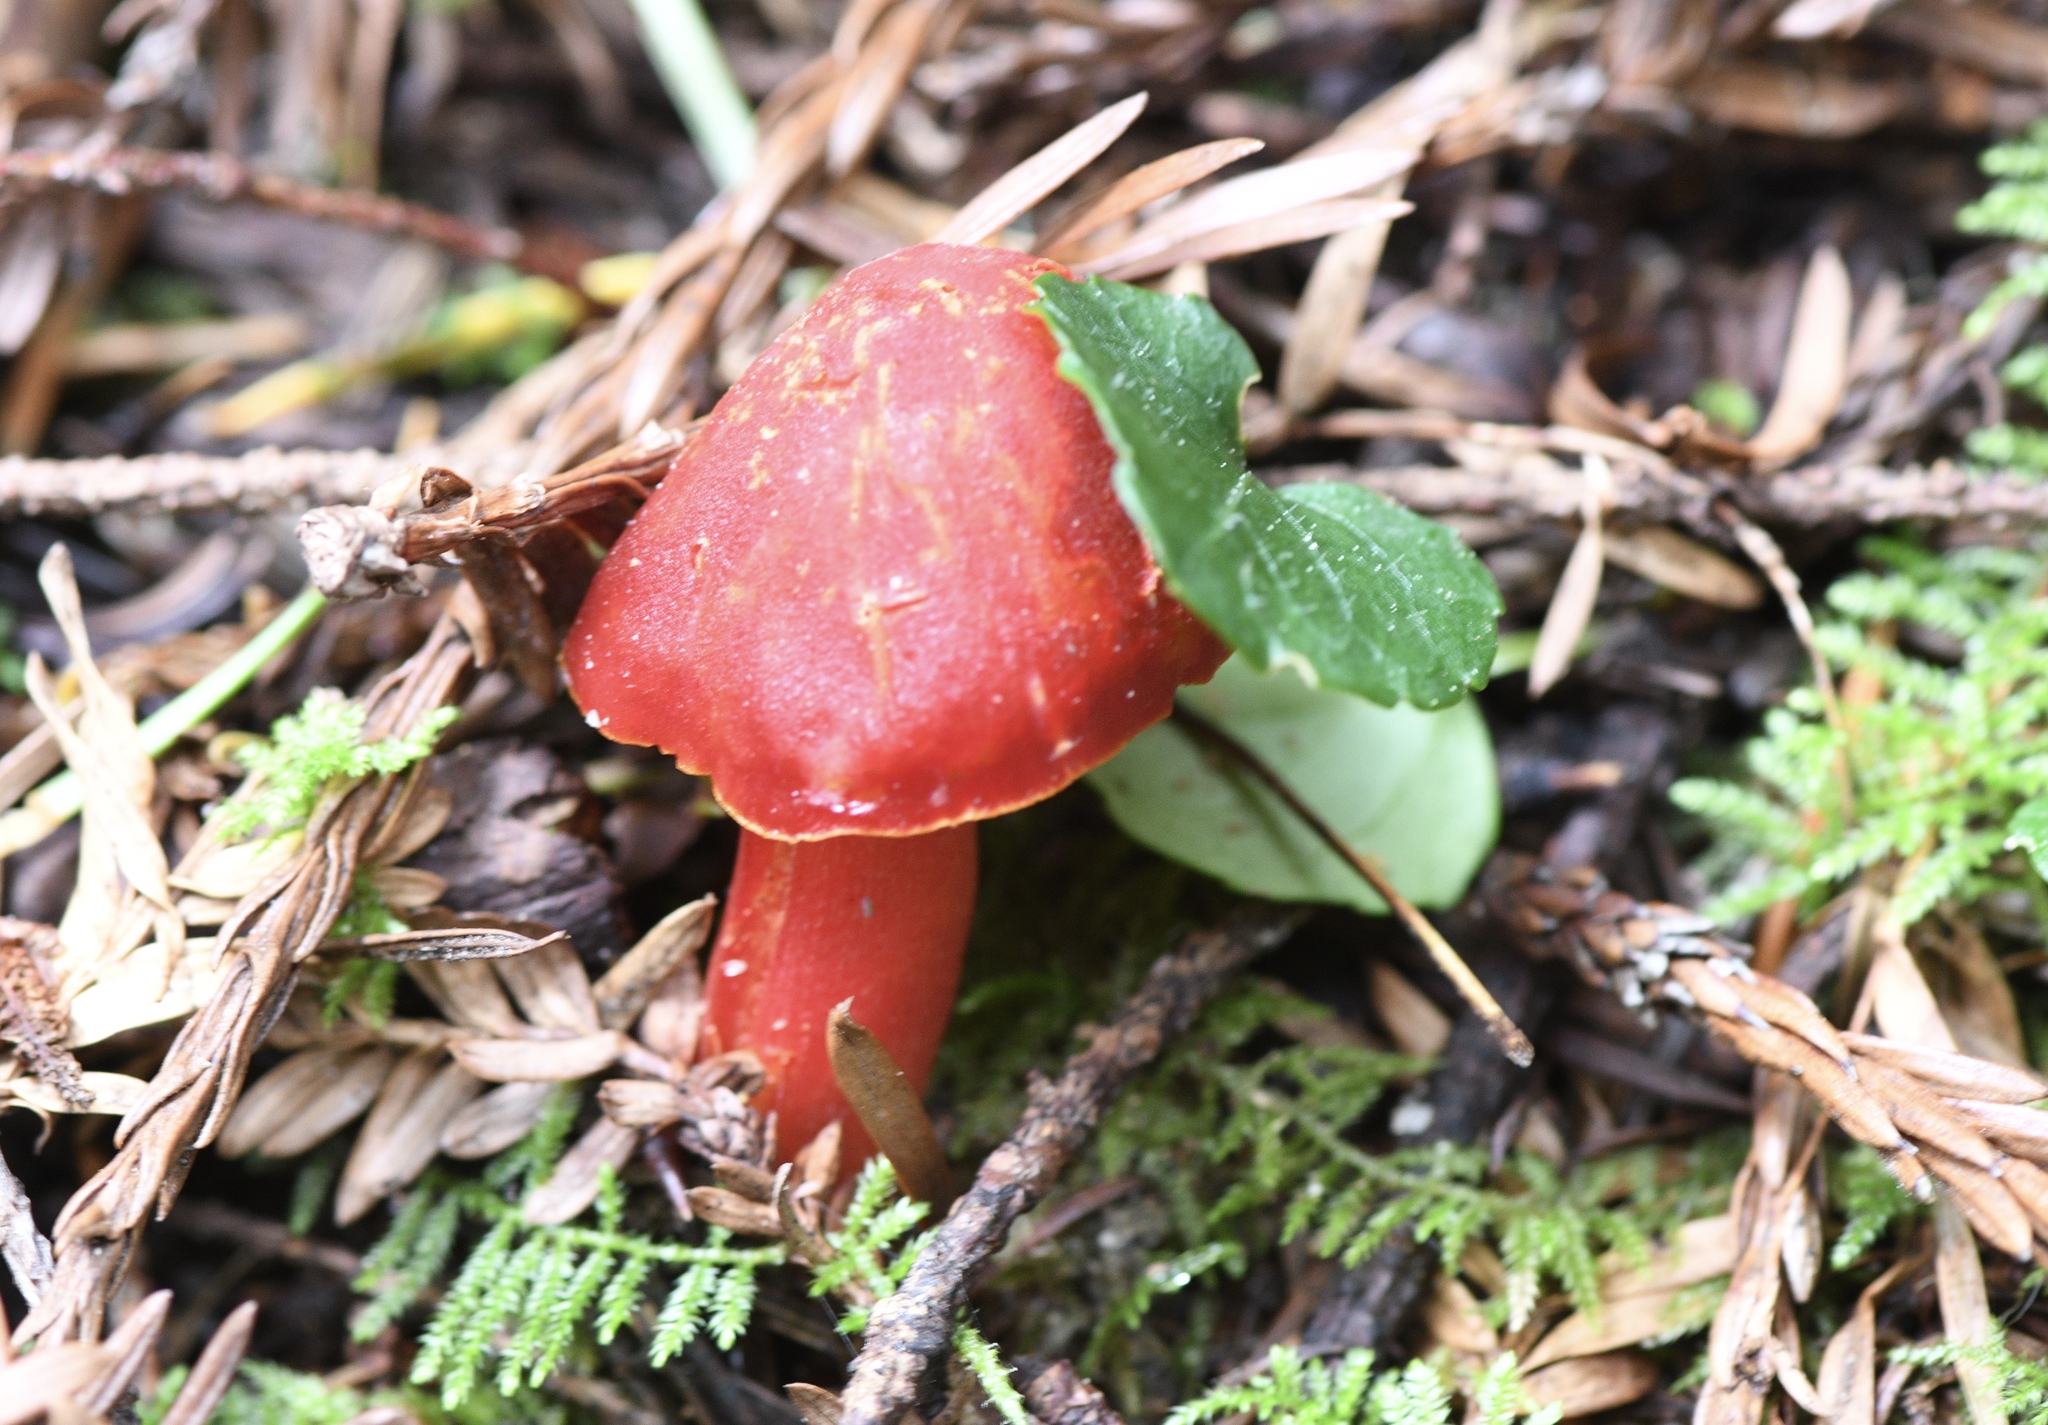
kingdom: Fungi
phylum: Basidiomycota
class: Agaricomycetes
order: Agaricales
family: Hygrophoraceae
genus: Hygrocybe
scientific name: Hygrocybe coccinea
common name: Scarlet hood
